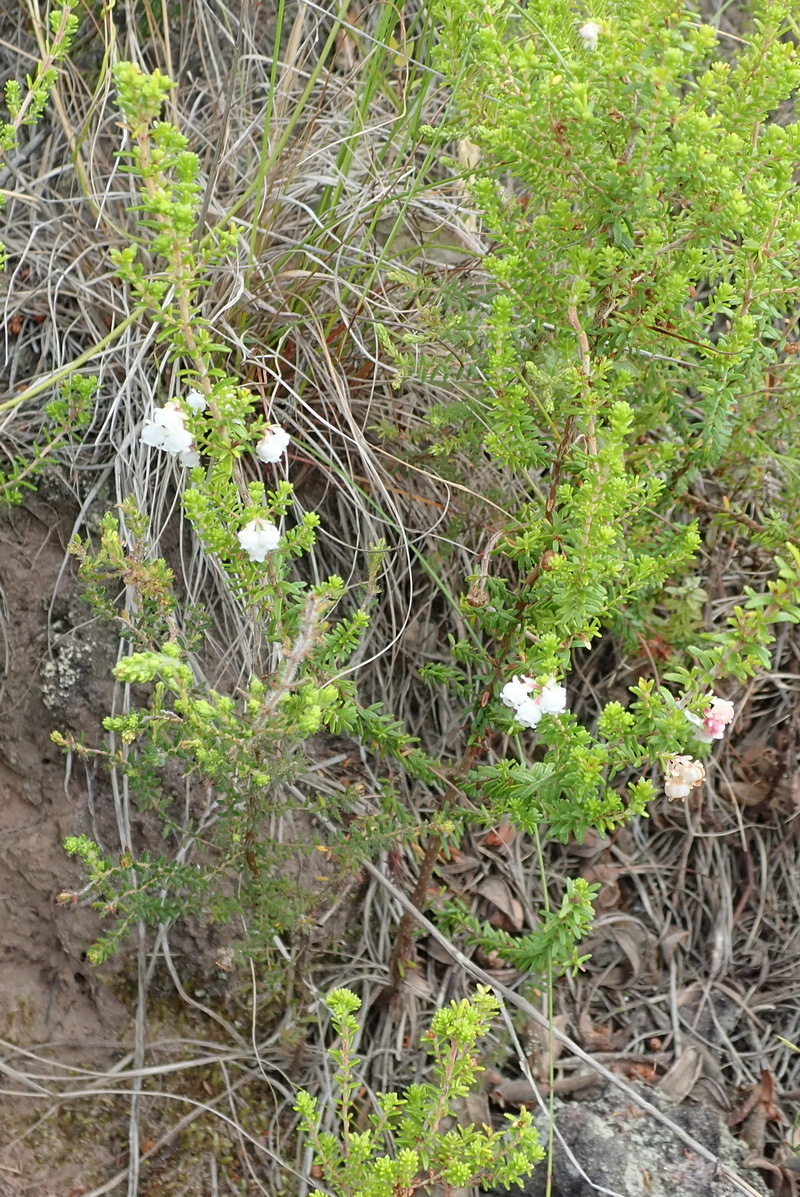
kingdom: Plantae
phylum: Tracheophyta
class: Magnoliopsida
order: Ericales
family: Ericaceae
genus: Erica
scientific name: Erica formosa
